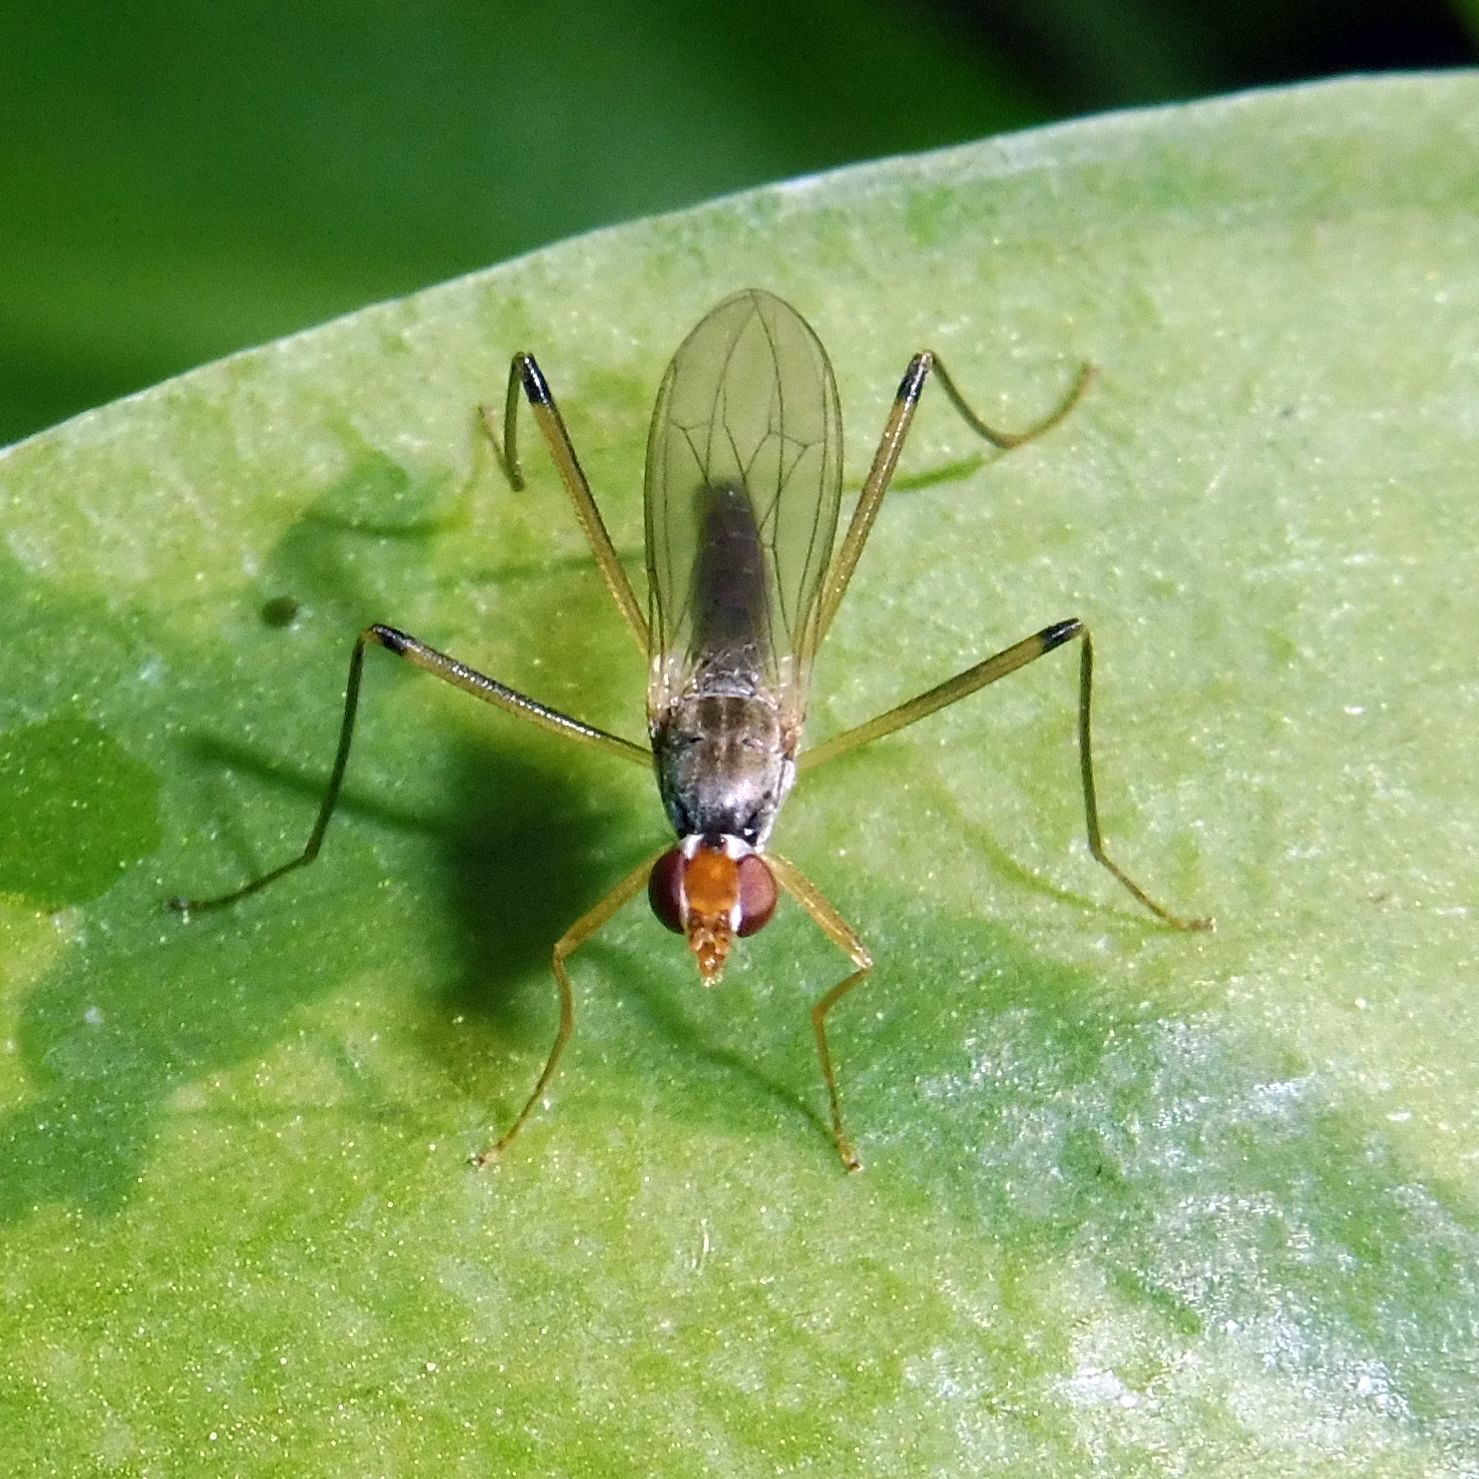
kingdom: Animalia
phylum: Arthropoda
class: Insecta
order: Diptera
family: Micropezidae
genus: Compsobata
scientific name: Compsobata cibaria
